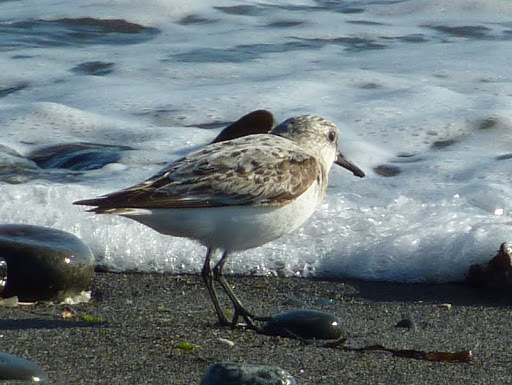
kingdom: Animalia
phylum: Chordata
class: Aves
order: Charadriiformes
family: Scolopacidae
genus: Calidris
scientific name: Calidris alba
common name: Sanderling
